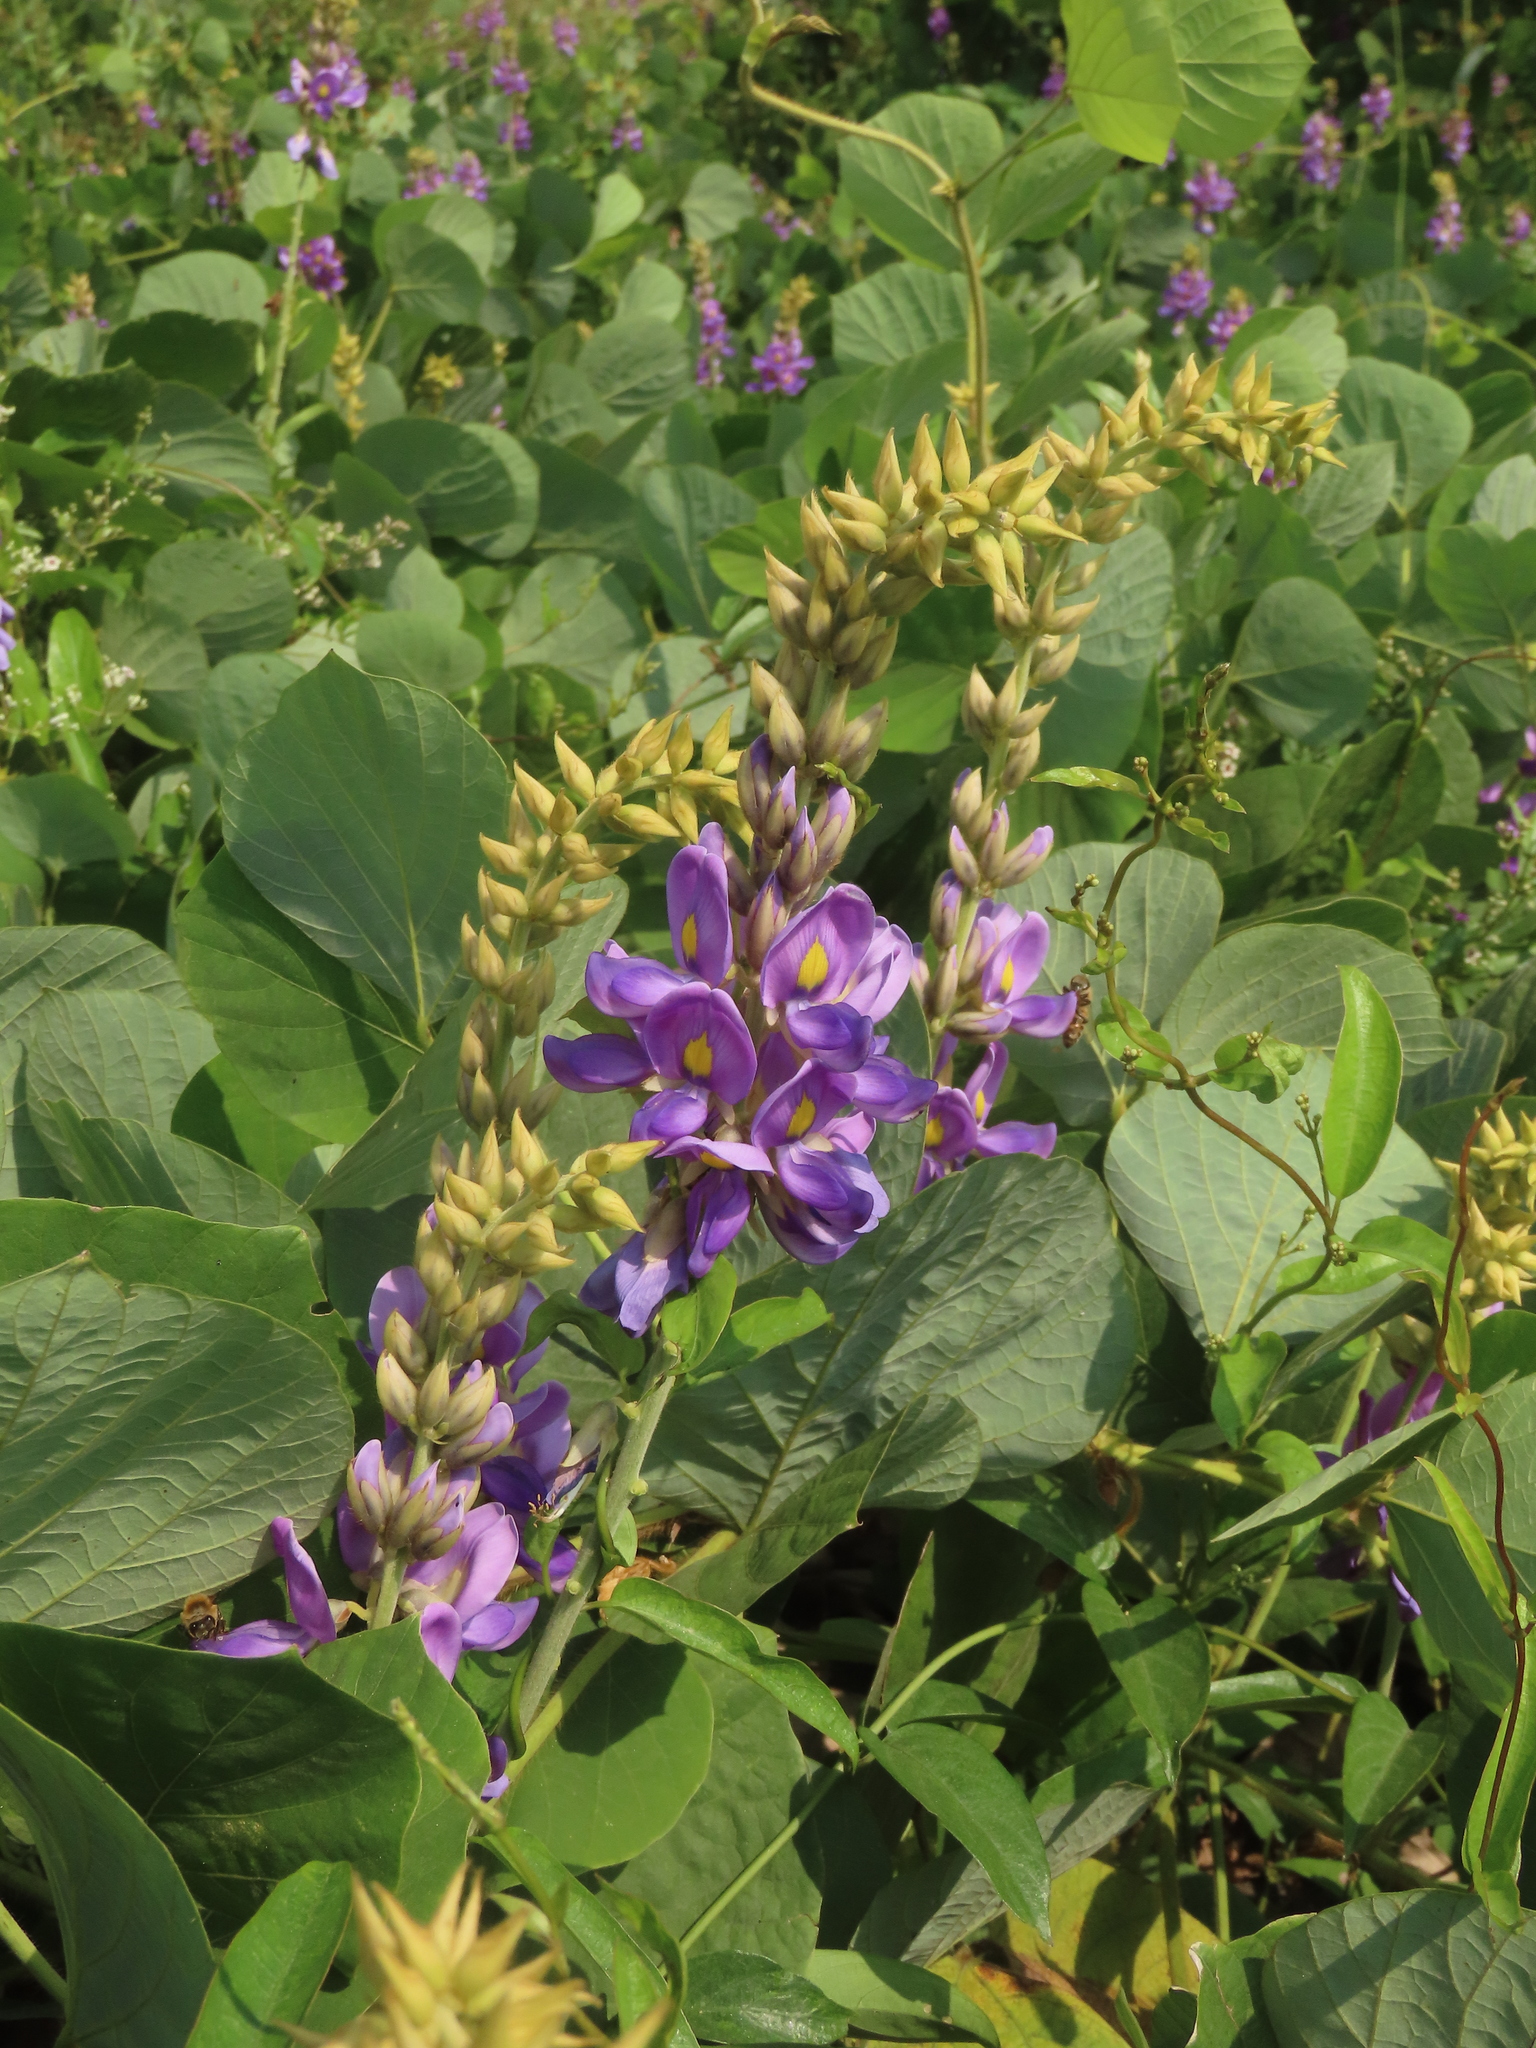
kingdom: Plantae
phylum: Tracheophyta
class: Magnoliopsida
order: Fabales
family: Fabaceae
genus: Pueraria
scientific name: Pueraria montana
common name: Kudzu
